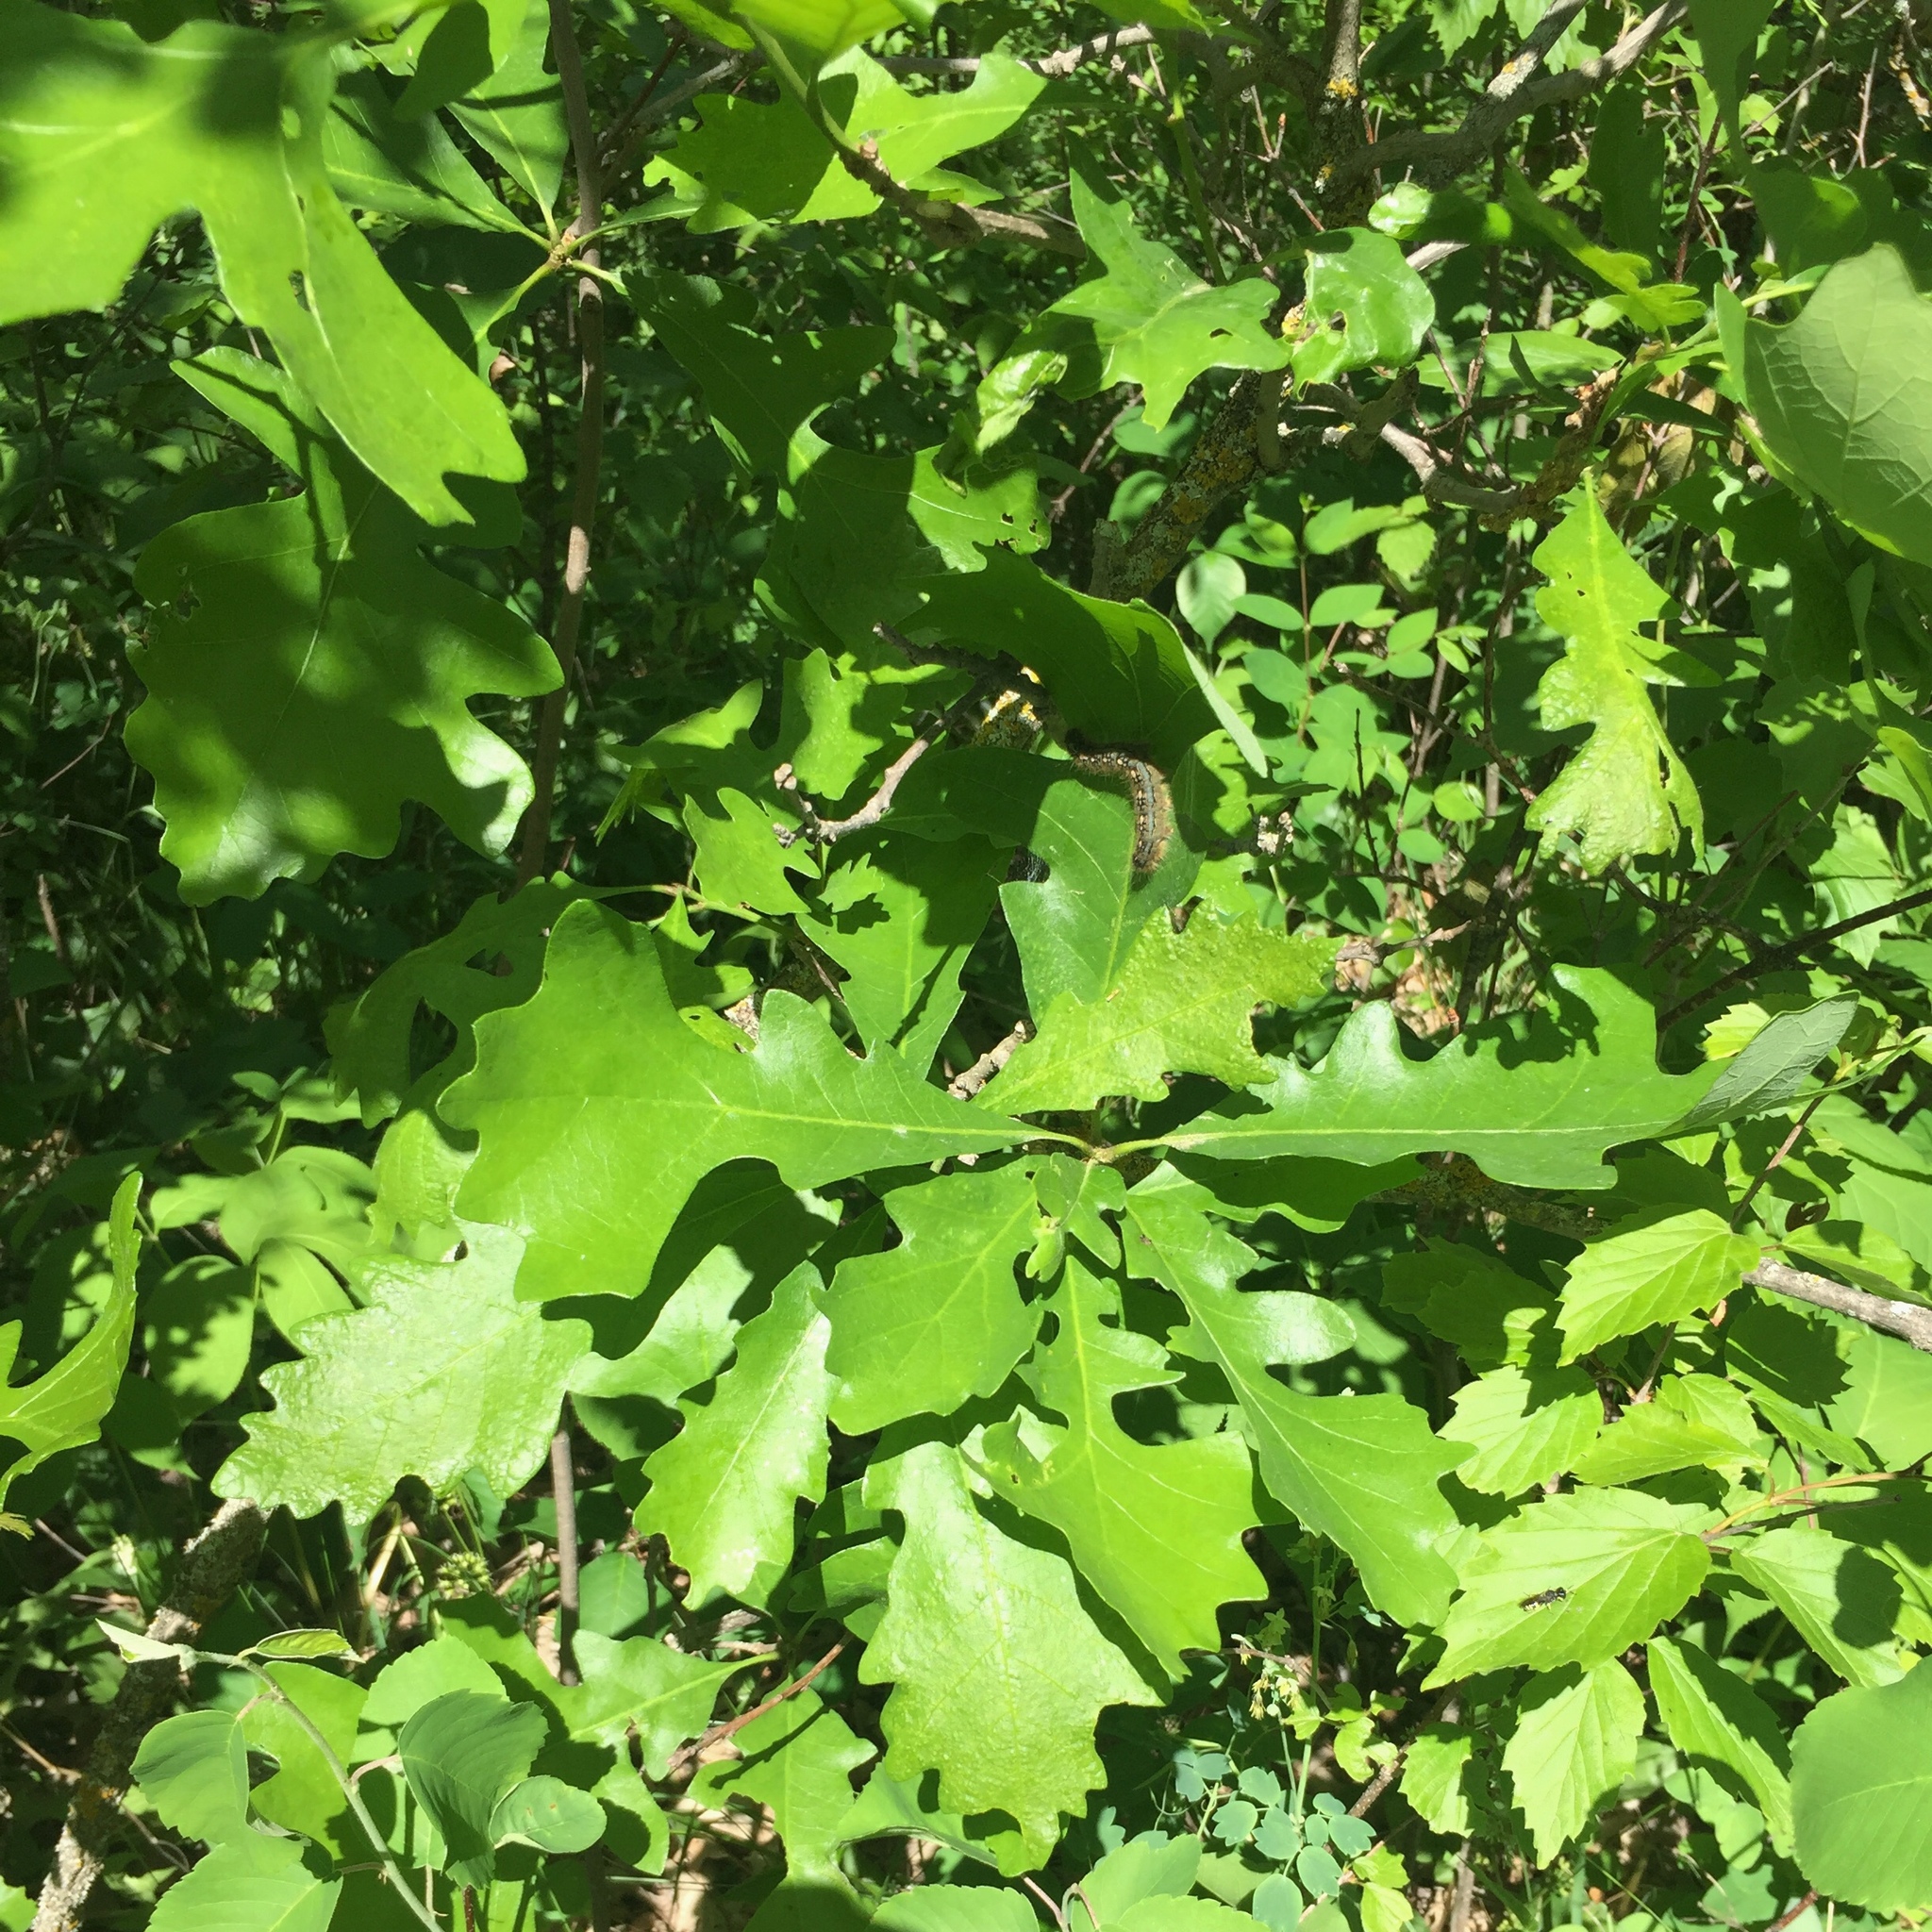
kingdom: Plantae
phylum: Tracheophyta
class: Magnoliopsida
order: Fagales
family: Fagaceae
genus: Quercus
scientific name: Quercus macrocarpa
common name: Bur oak
